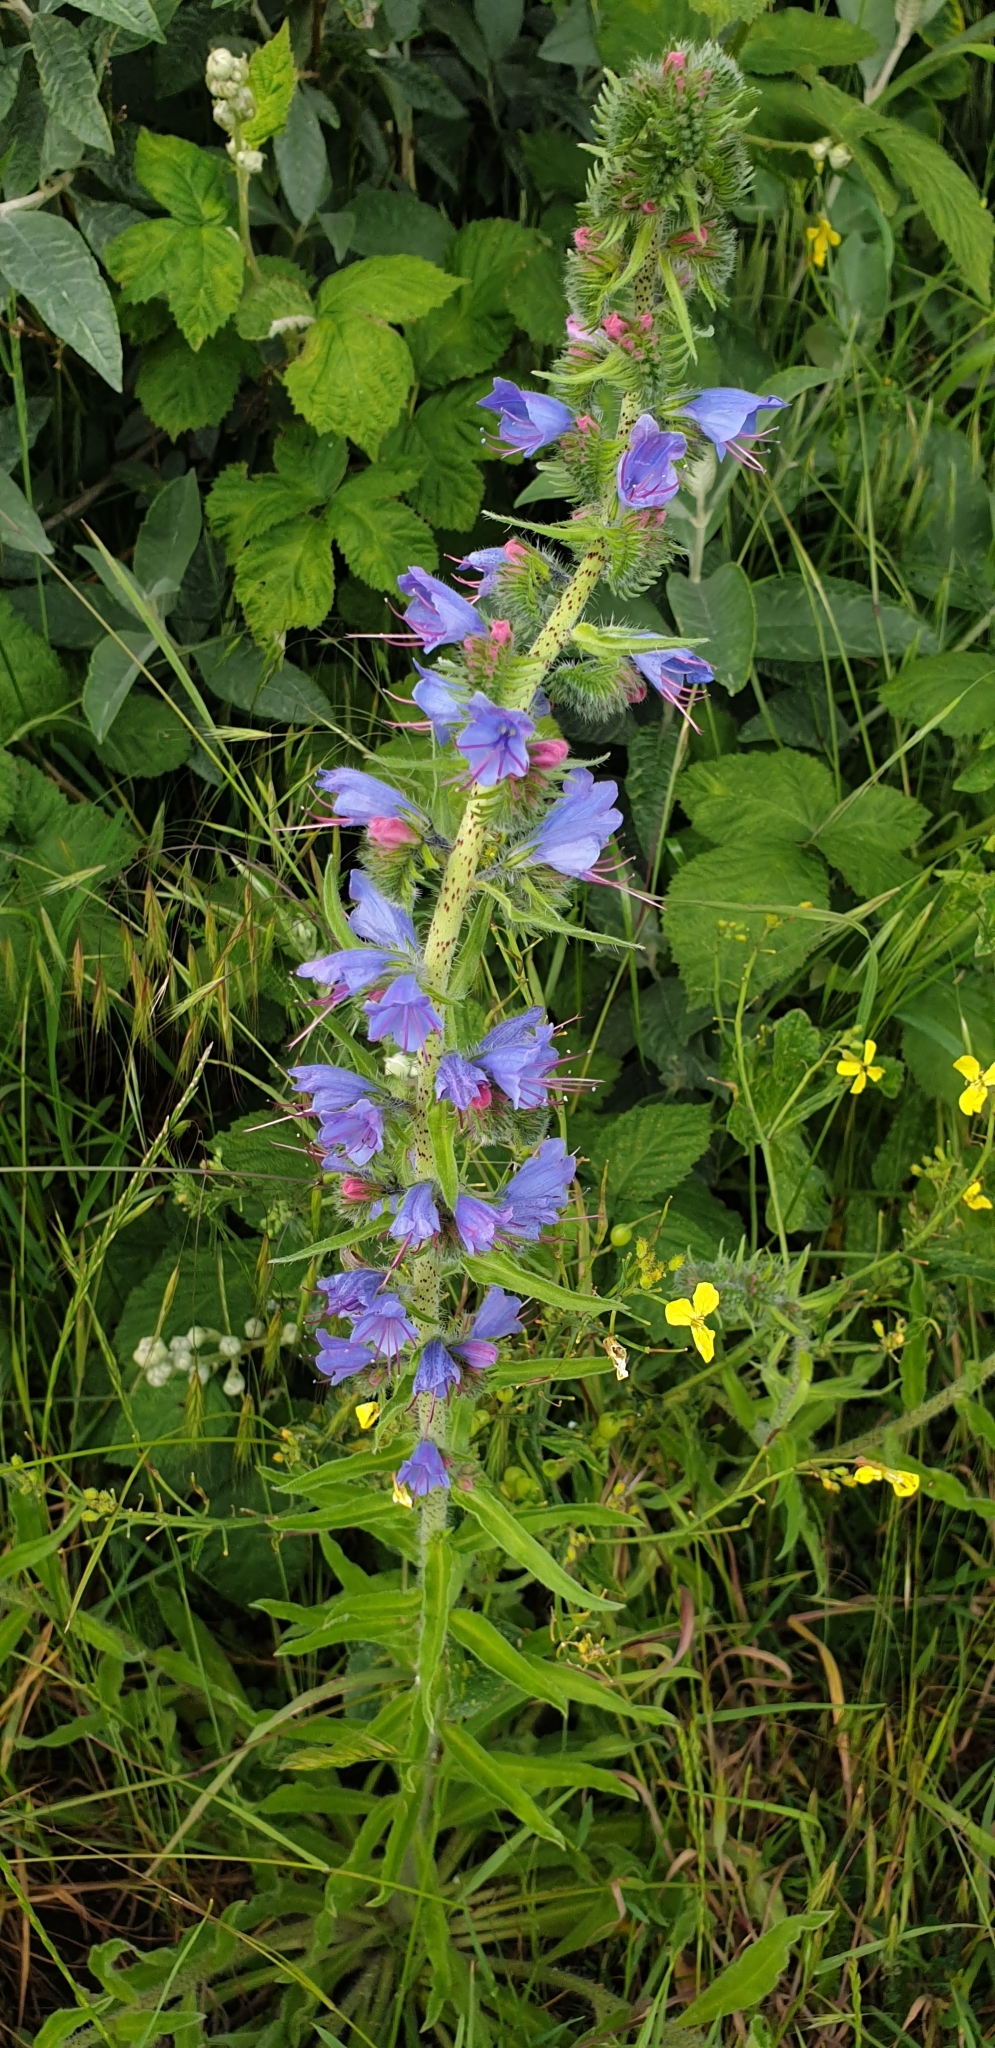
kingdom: Plantae
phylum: Tracheophyta
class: Magnoliopsida
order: Boraginales
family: Boraginaceae
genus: Echium
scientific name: Echium vulgare
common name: Common viper's bugloss
